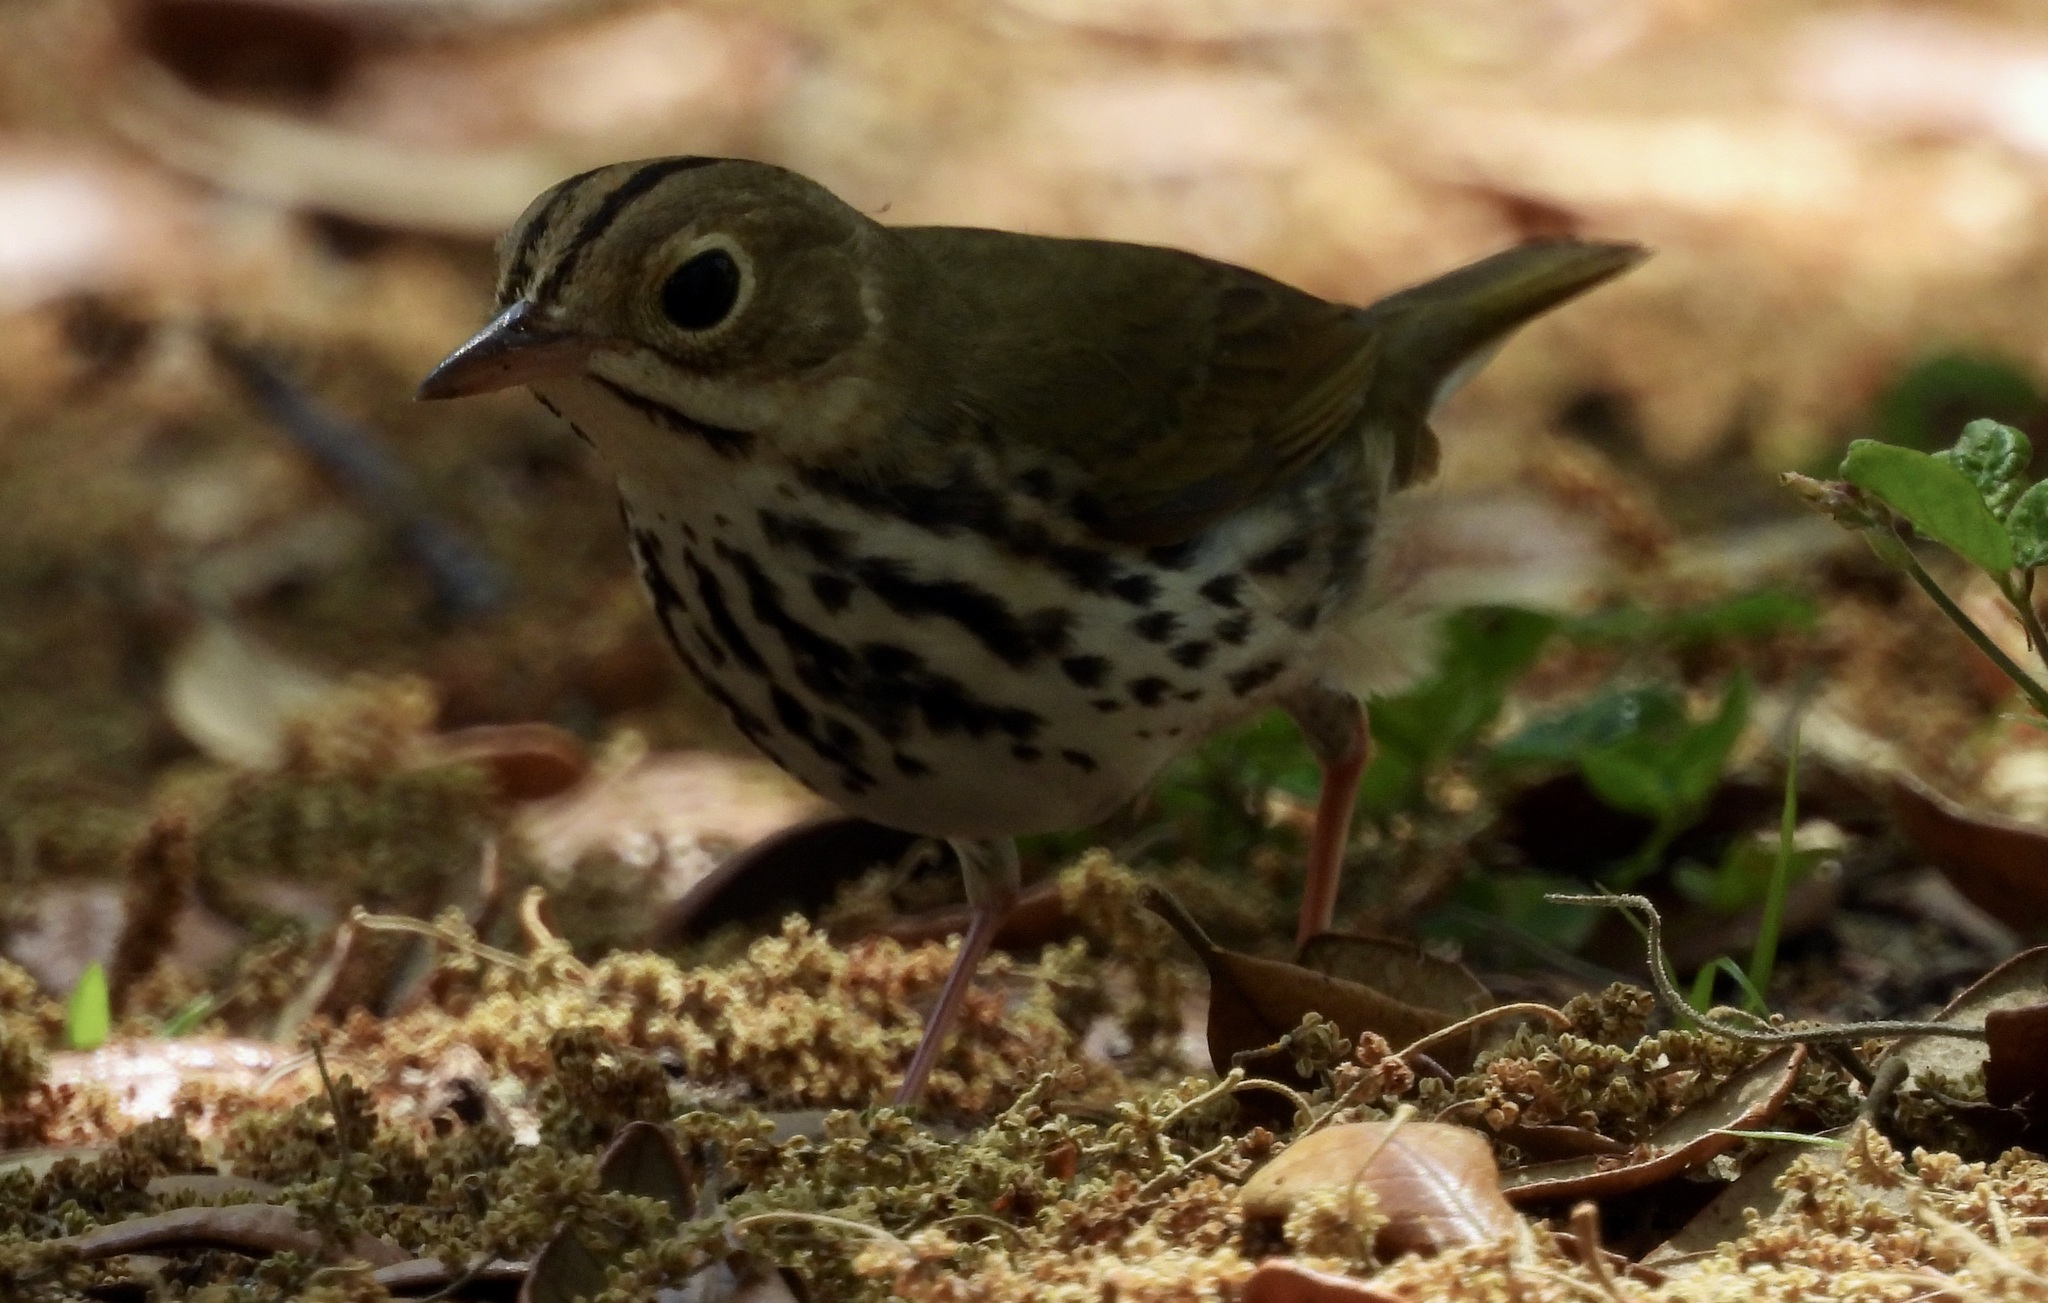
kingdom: Animalia
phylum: Chordata
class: Aves
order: Passeriformes
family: Parulidae
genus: Seiurus
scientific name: Seiurus aurocapilla
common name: Ovenbird
